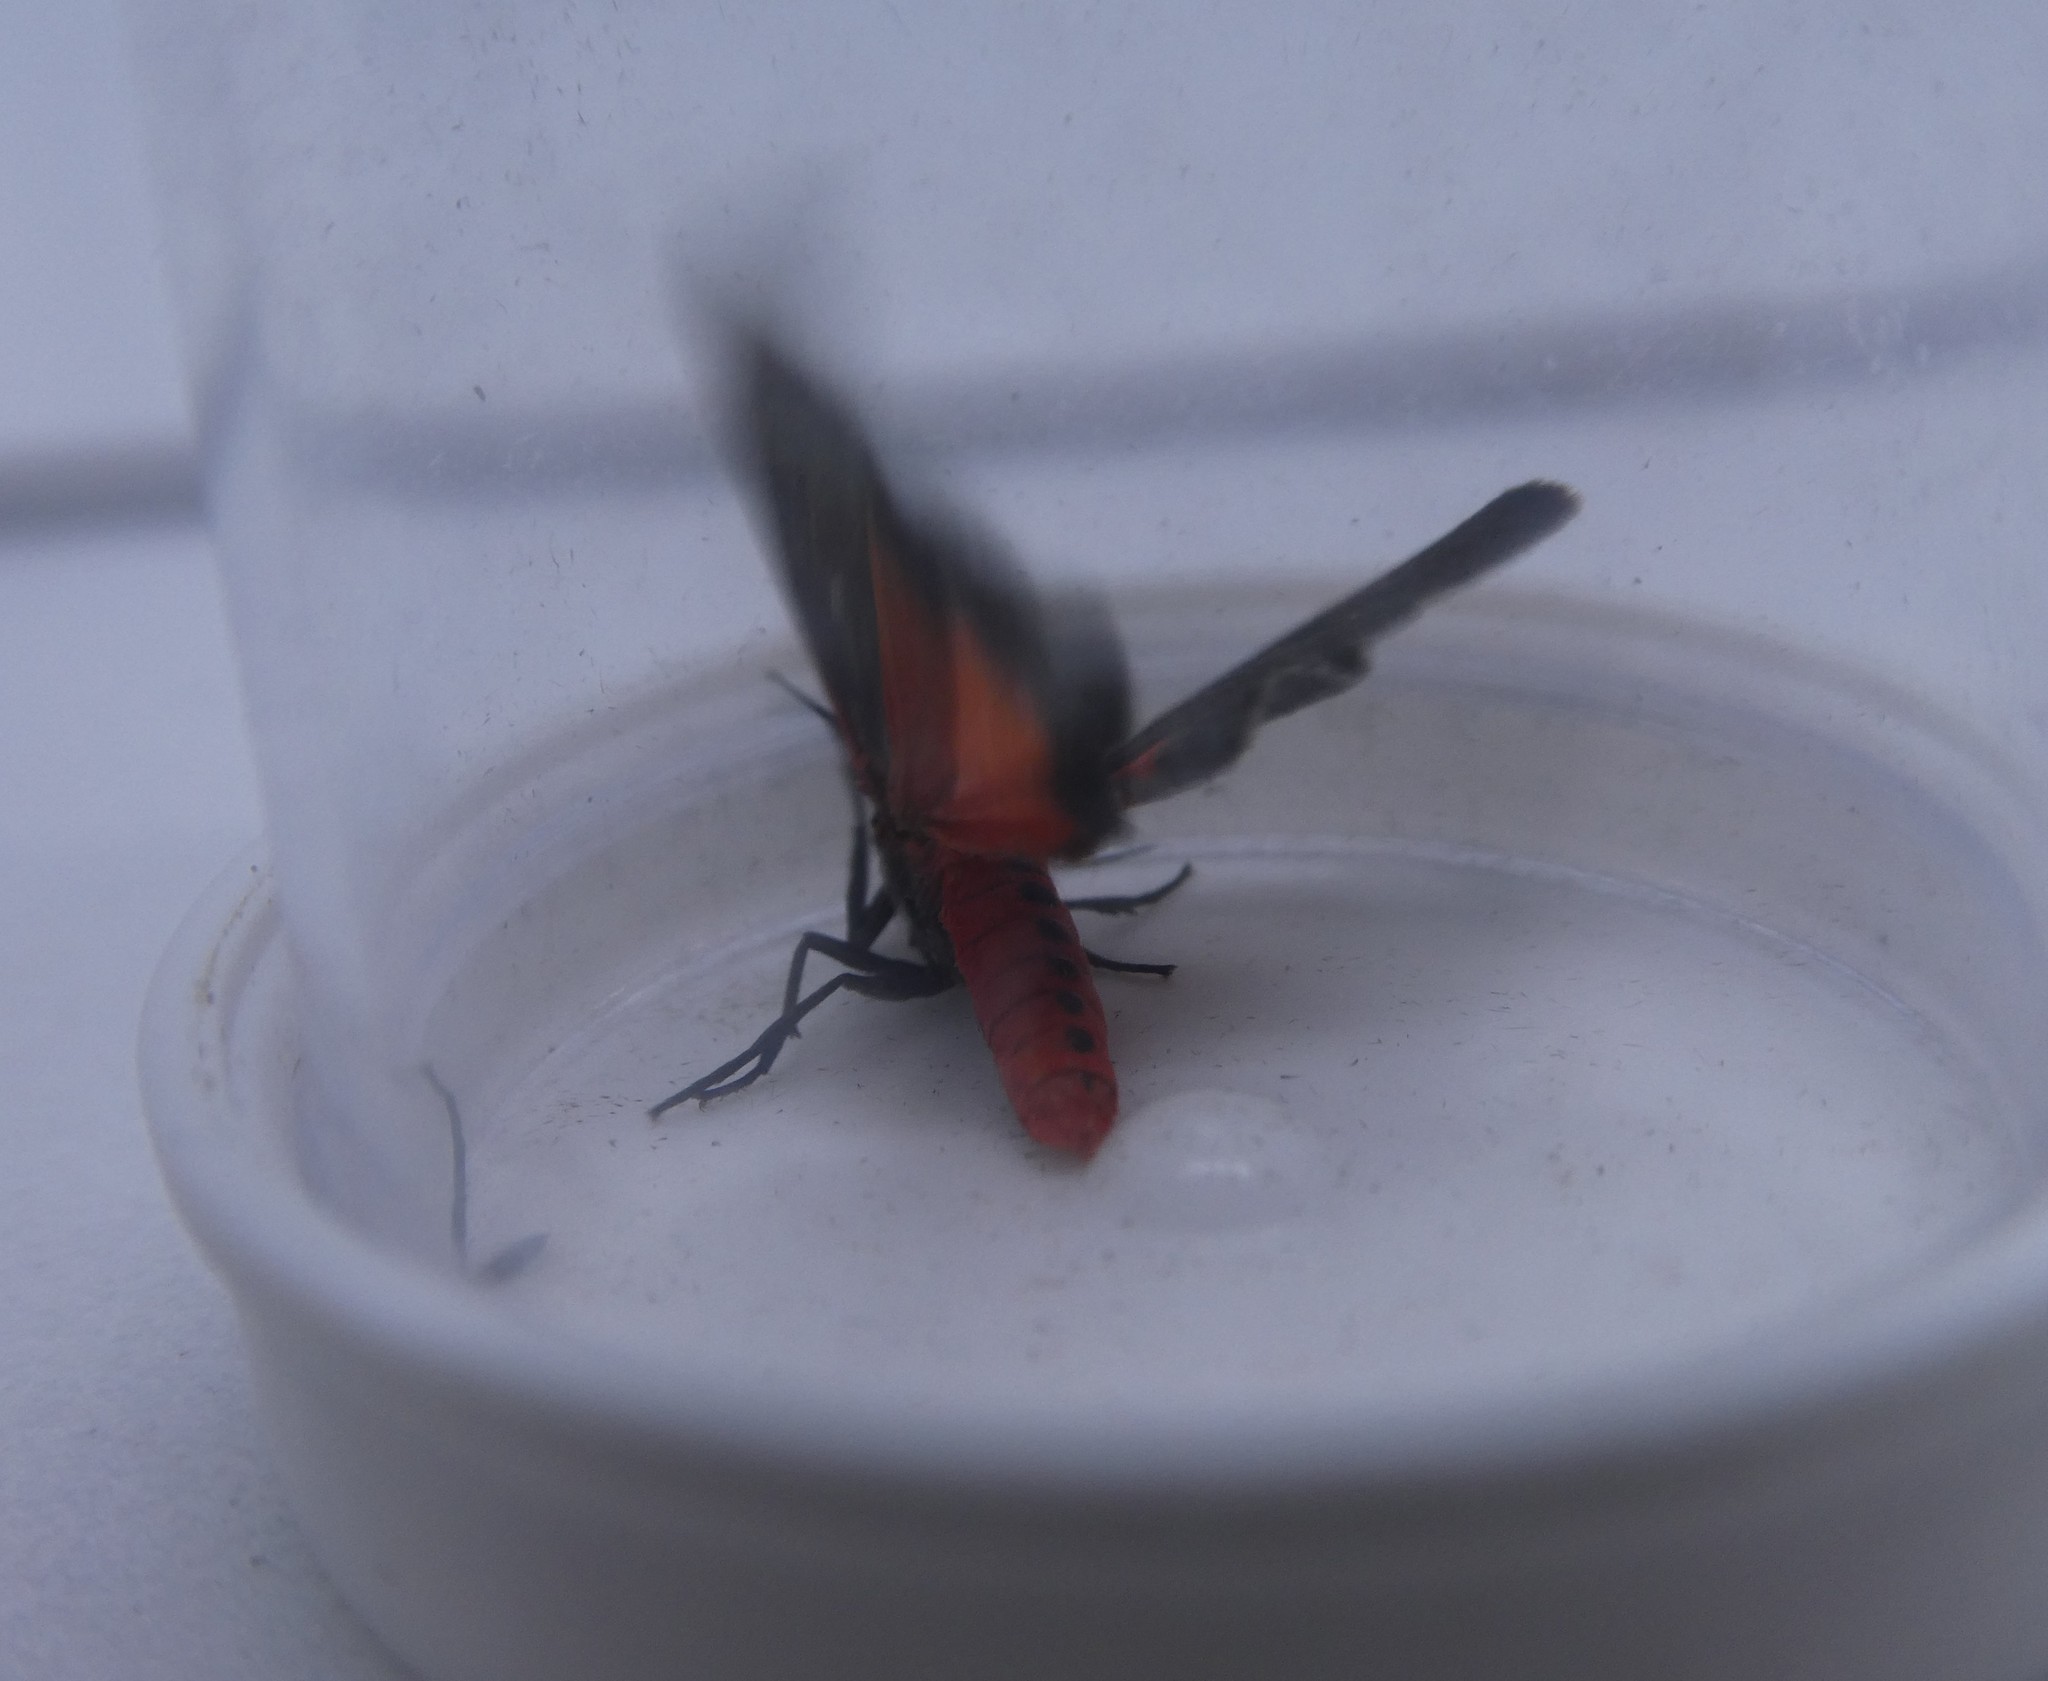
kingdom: Animalia
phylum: Arthropoda
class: Insecta
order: Lepidoptera
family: Erebidae
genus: Virbia
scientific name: Virbia laeta
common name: Joyful holomelina moth
